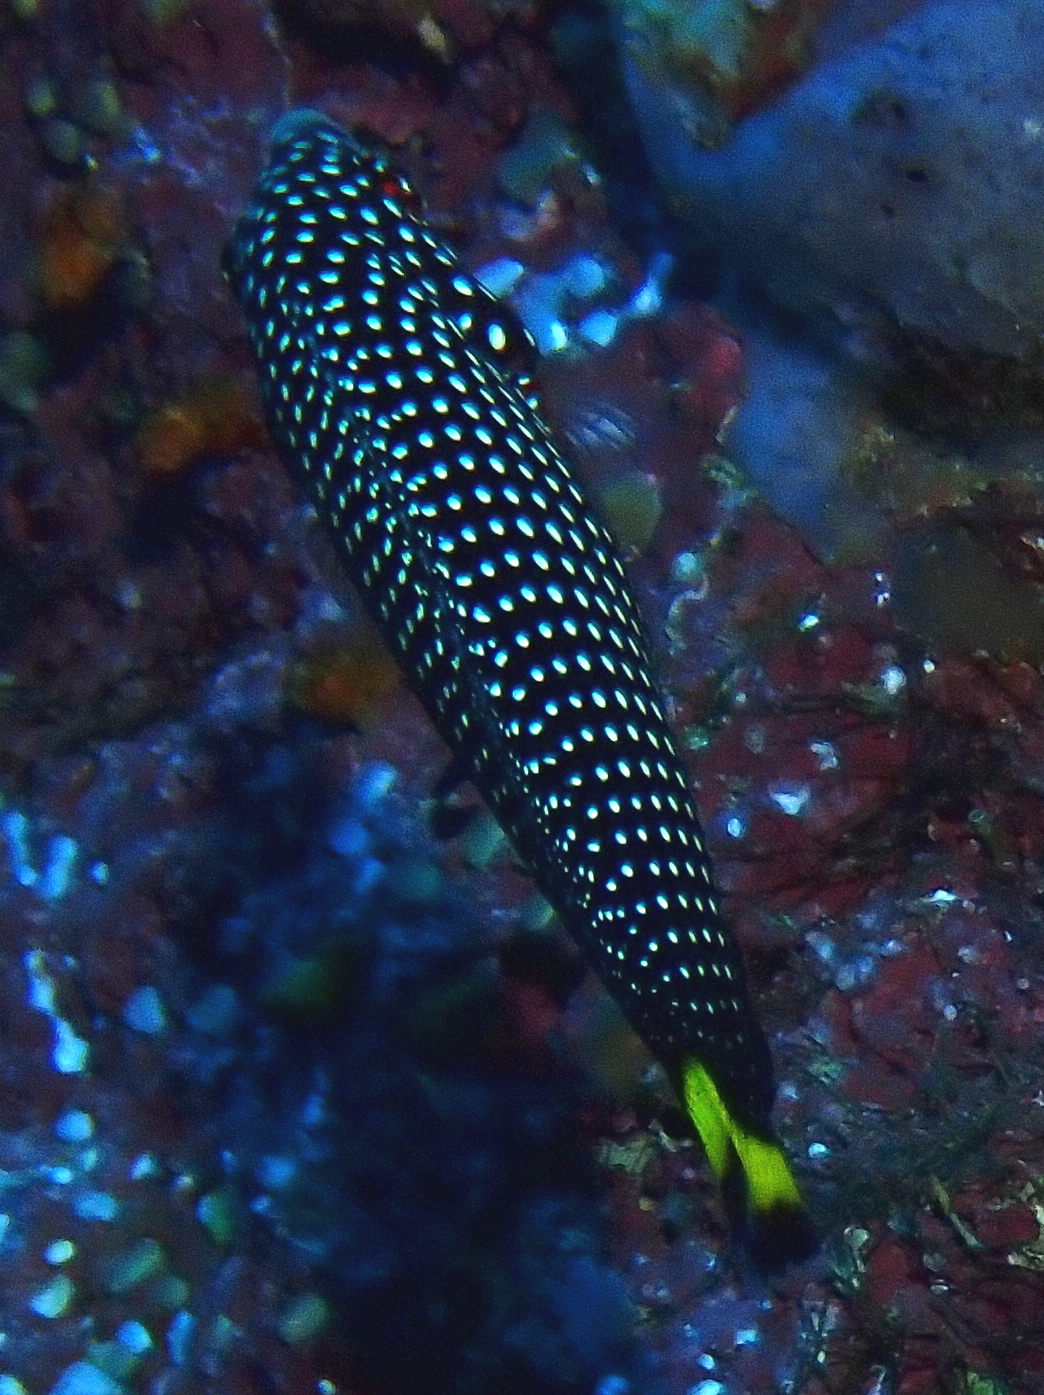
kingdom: Animalia
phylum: Chordata
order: Perciformes
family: Labridae
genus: Anampses
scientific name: Anampses melanurus
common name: White-spotted wrasse
